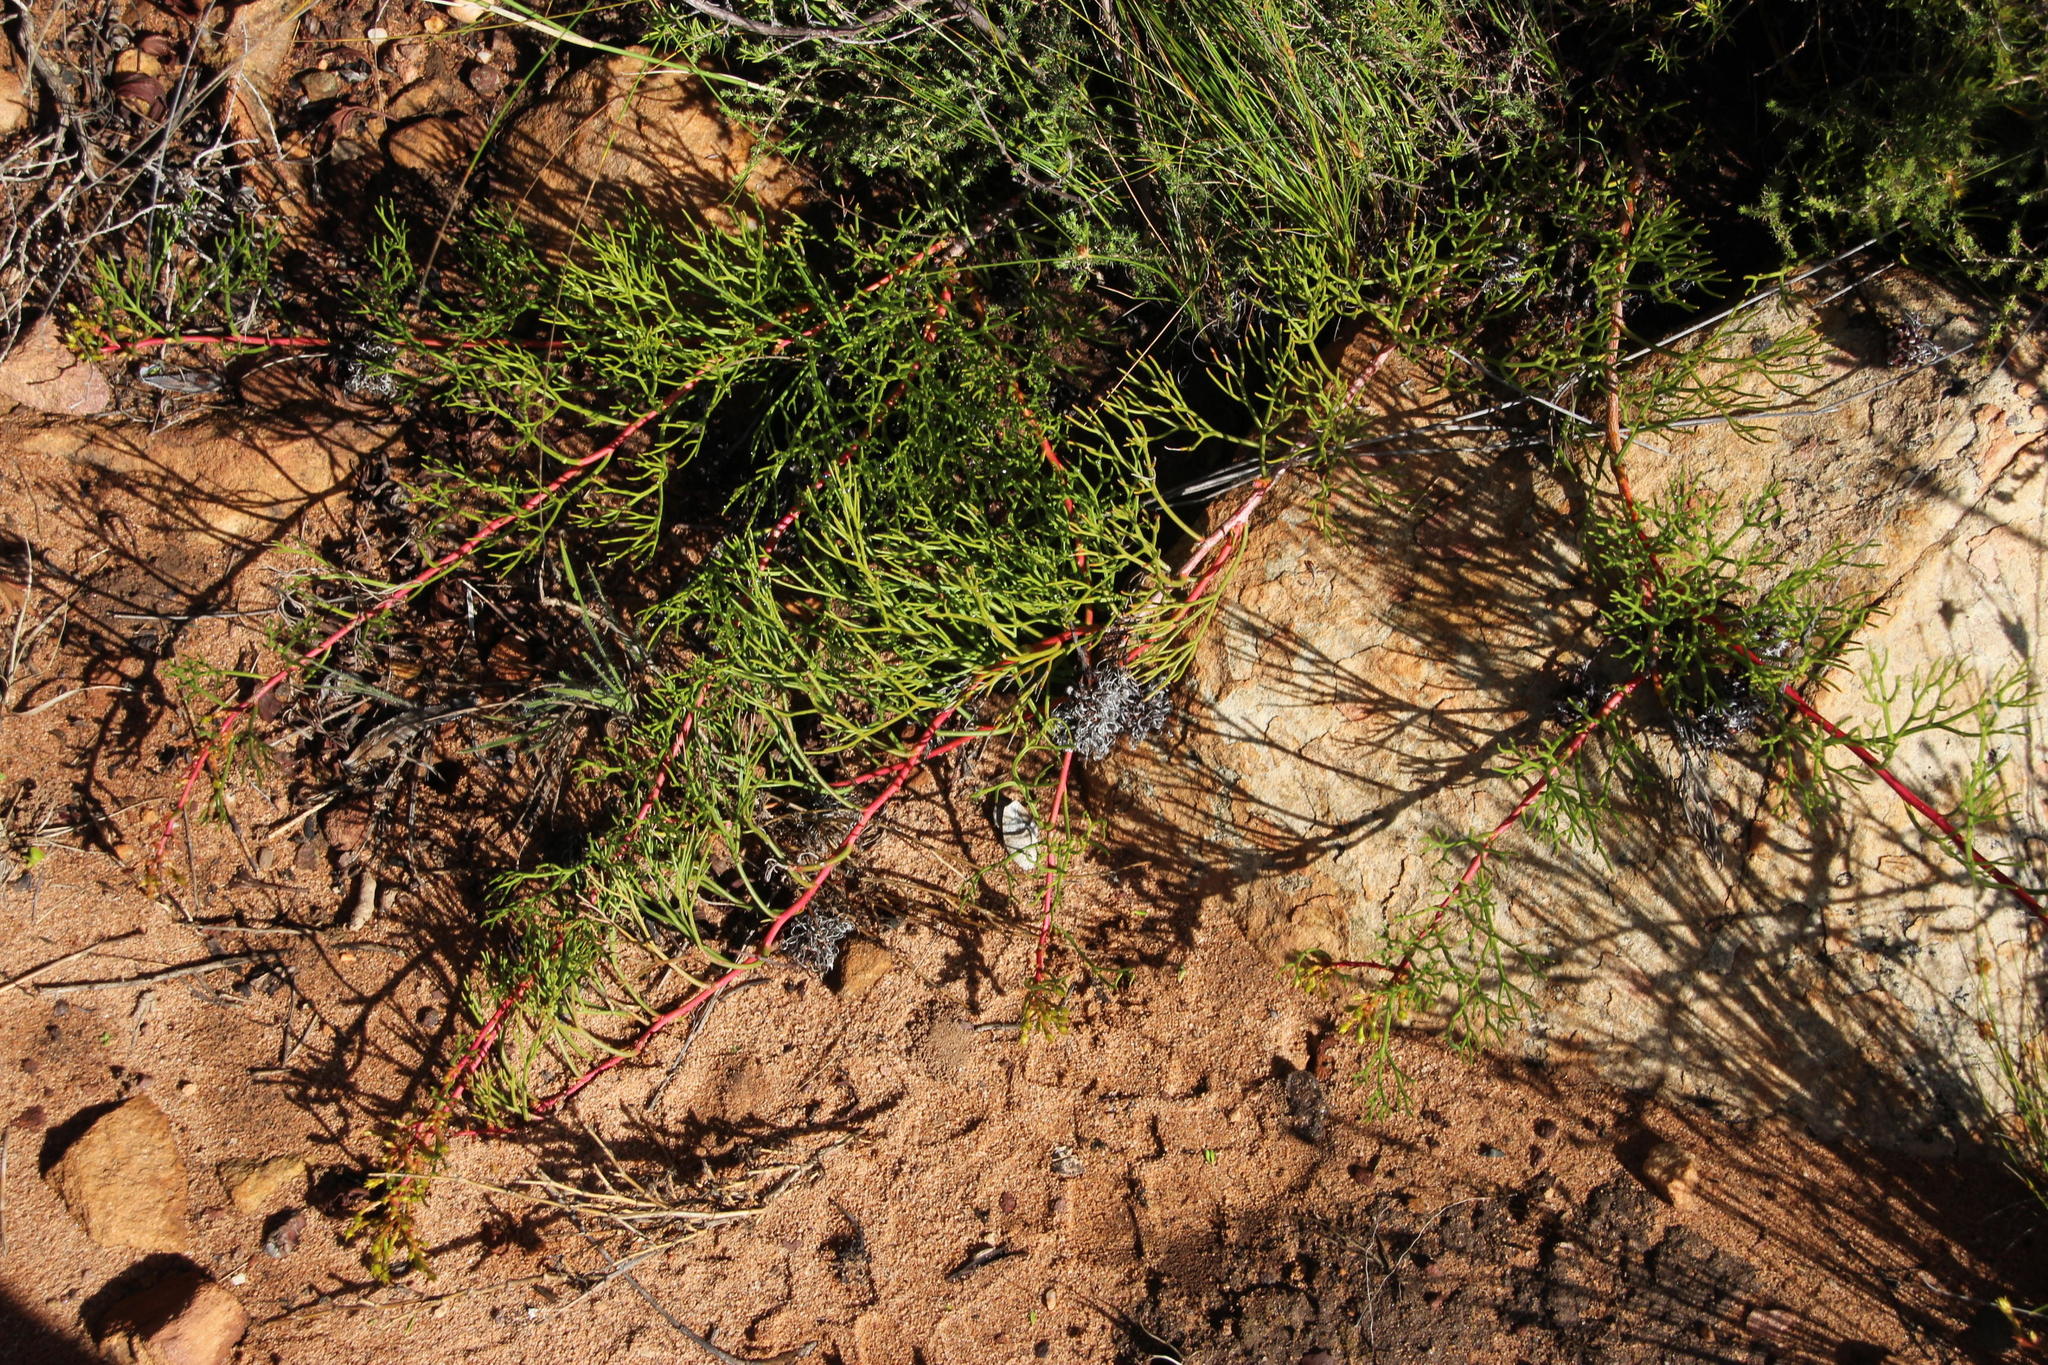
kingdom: Plantae
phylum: Tracheophyta
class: Magnoliopsida
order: Proteales
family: Proteaceae
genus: Serruria
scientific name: Serruria effusa
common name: Candelabra spiderhead
